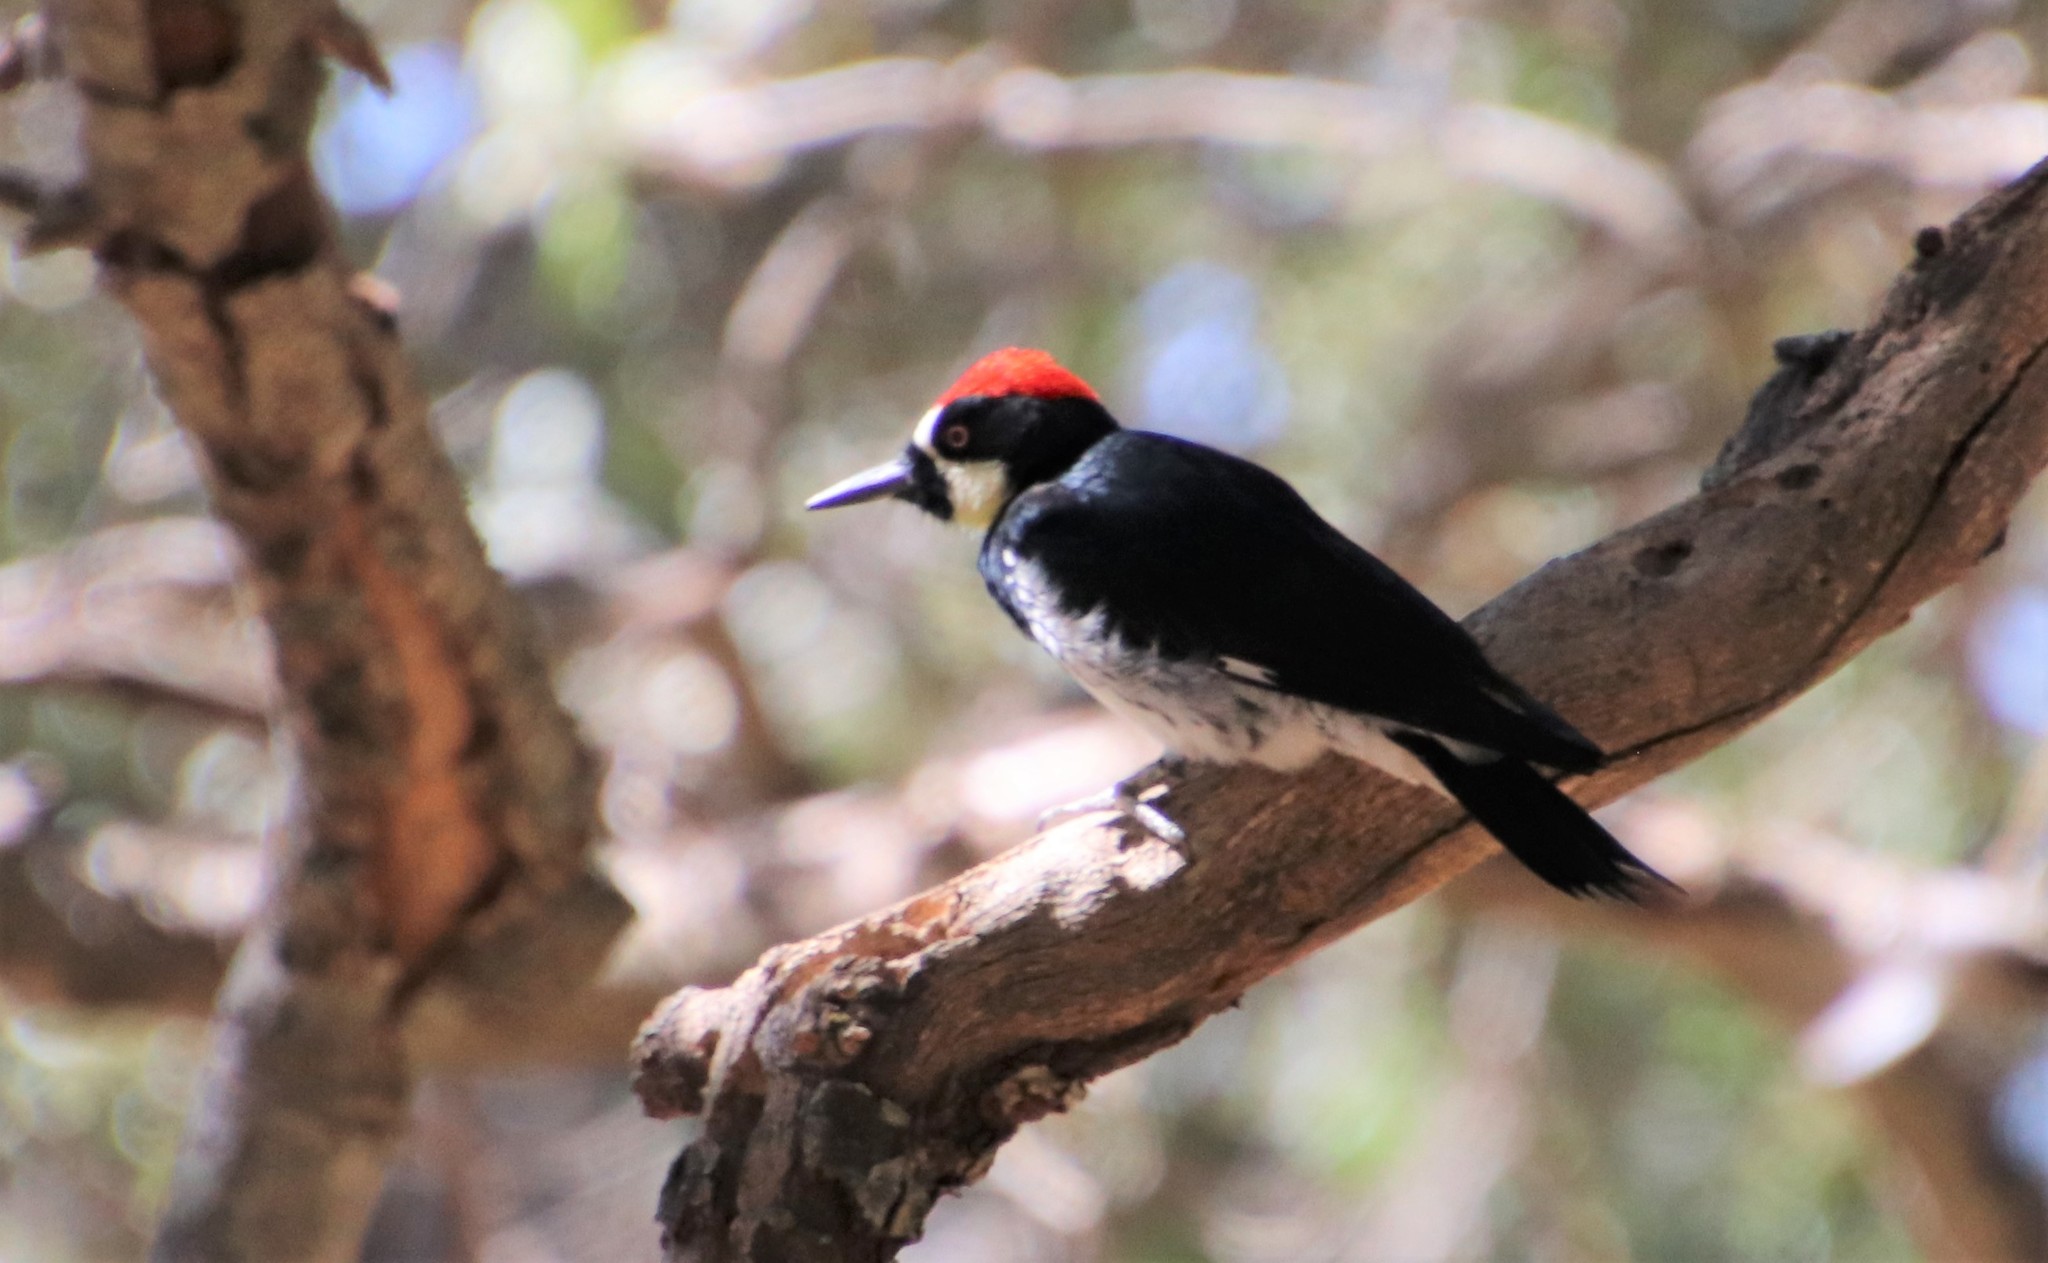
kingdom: Animalia
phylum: Chordata
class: Aves
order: Piciformes
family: Picidae
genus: Melanerpes
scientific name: Melanerpes formicivorus
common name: Acorn woodpecker
